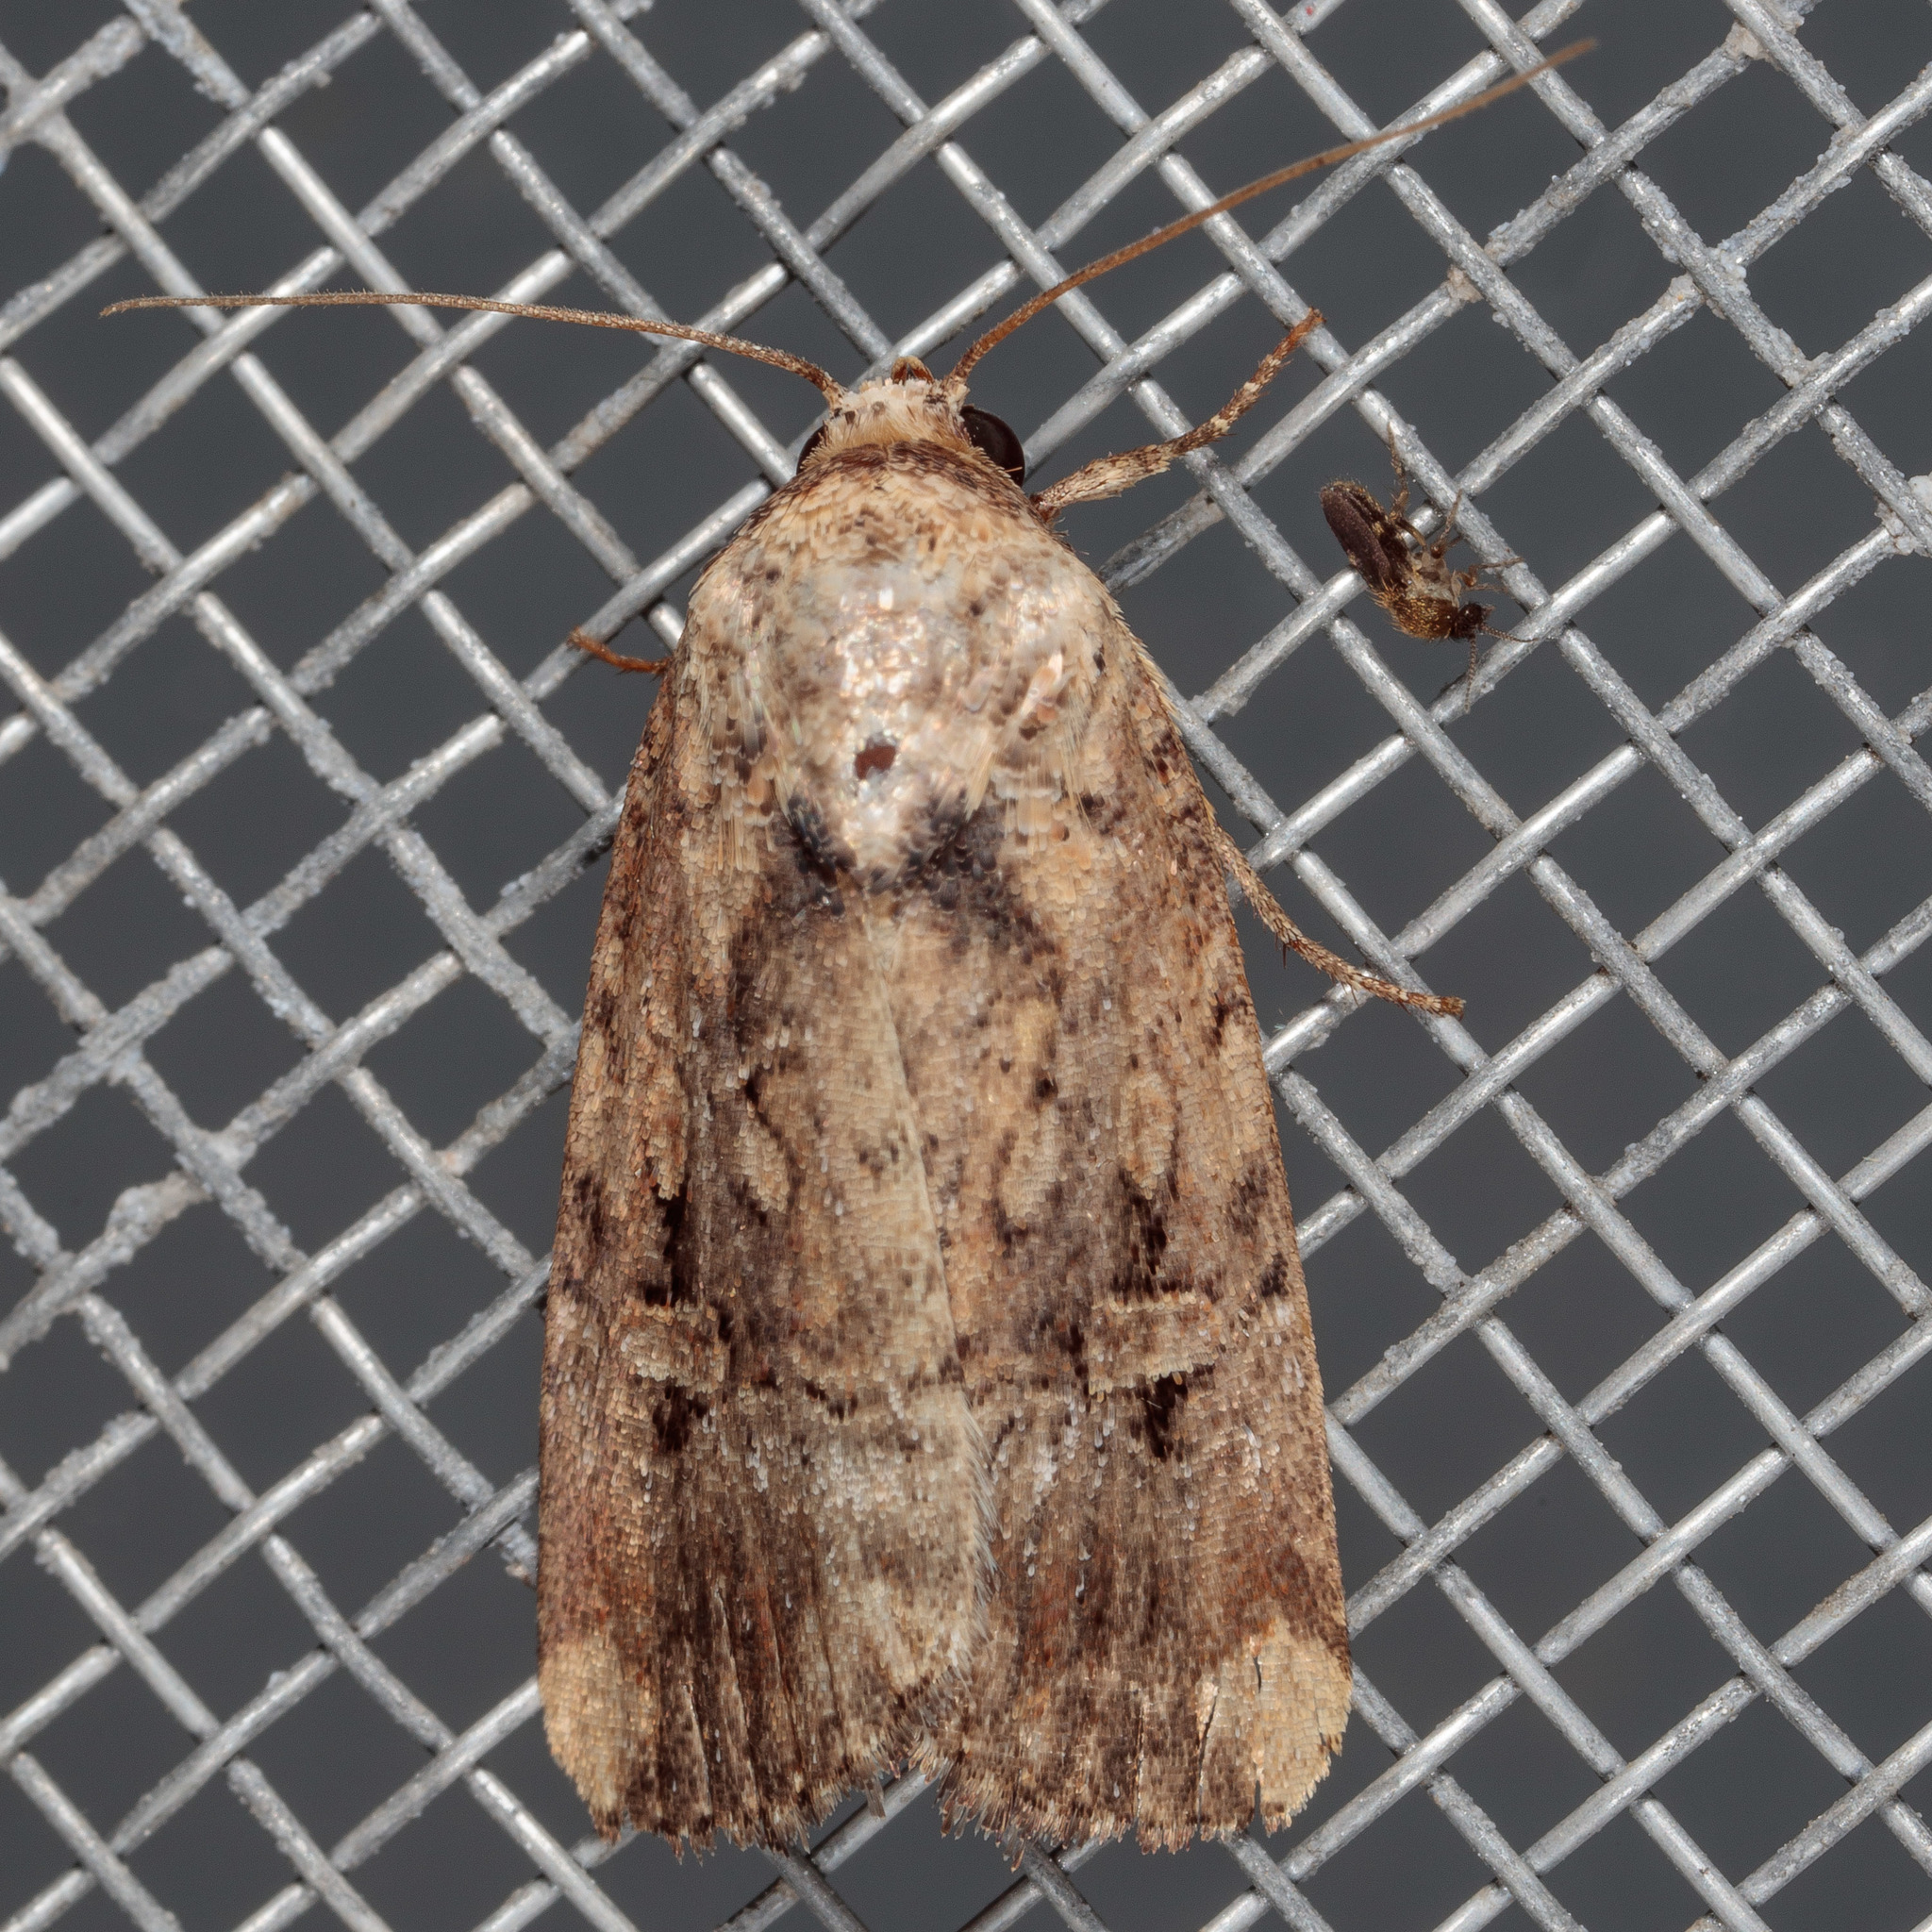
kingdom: Animalia
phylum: Arthropoda
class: Insecta
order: Lepidoptera
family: Noctuidae
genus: Elaphria
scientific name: Elaphria chalcedonia
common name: Chalcedony midget
